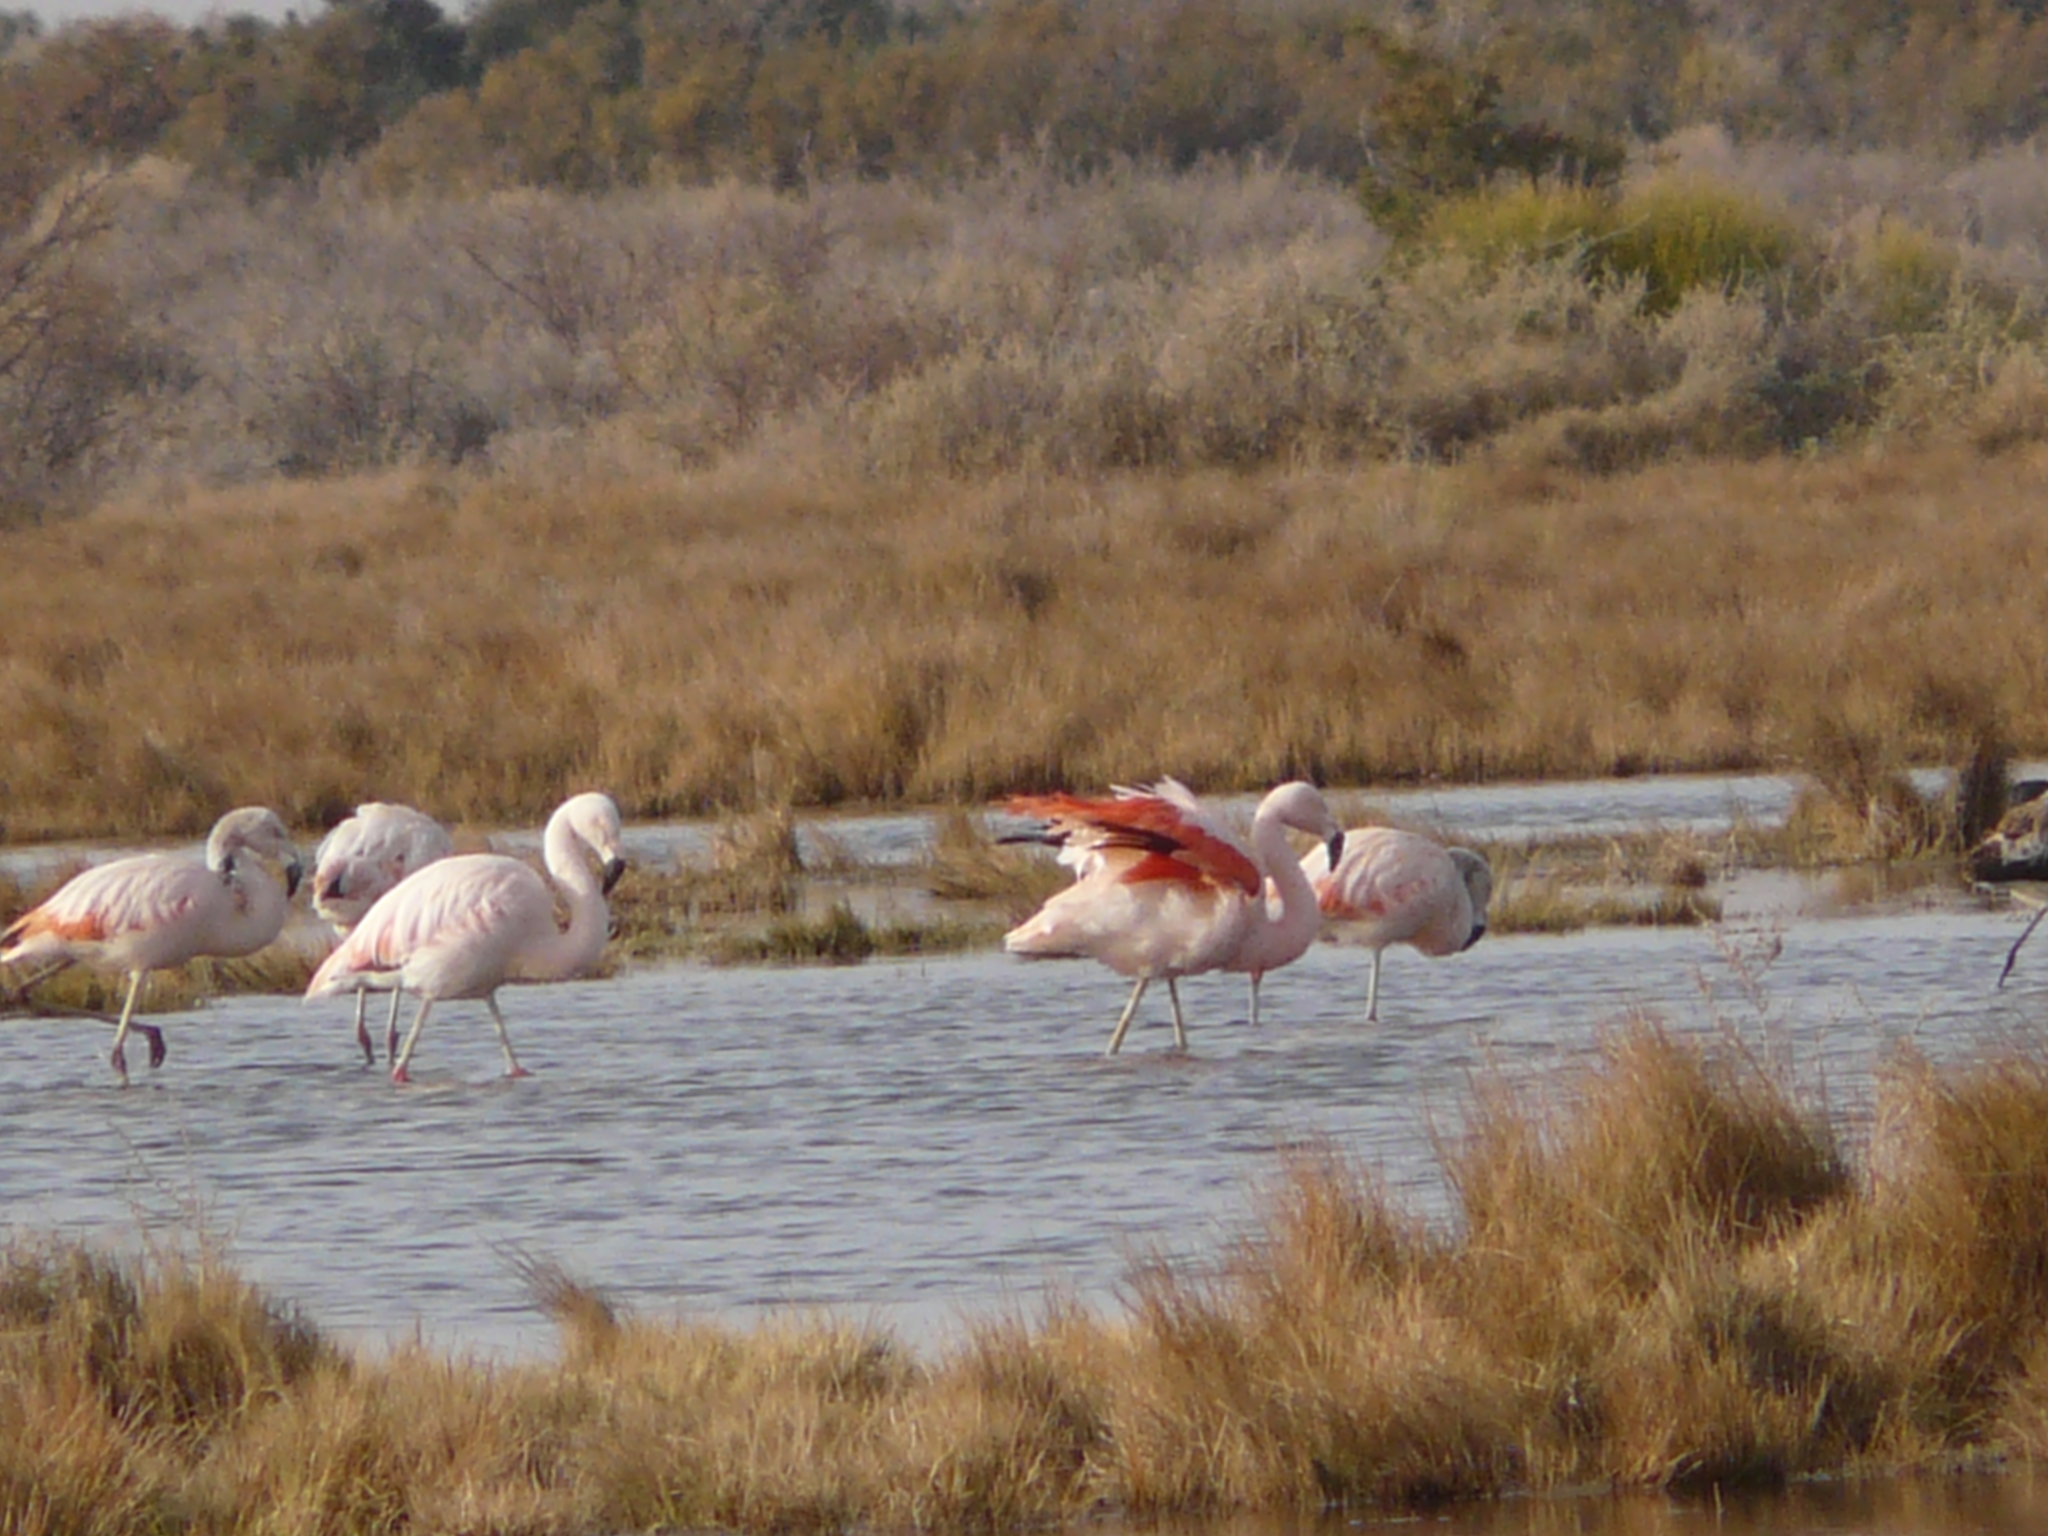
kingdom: Animalia
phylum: Chordata
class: Aves
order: Phoenicopteriformes
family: Phoenicopteridae
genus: Phoenicopterus
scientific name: Phoenicopterus chilensis
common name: Chilean flamingo
